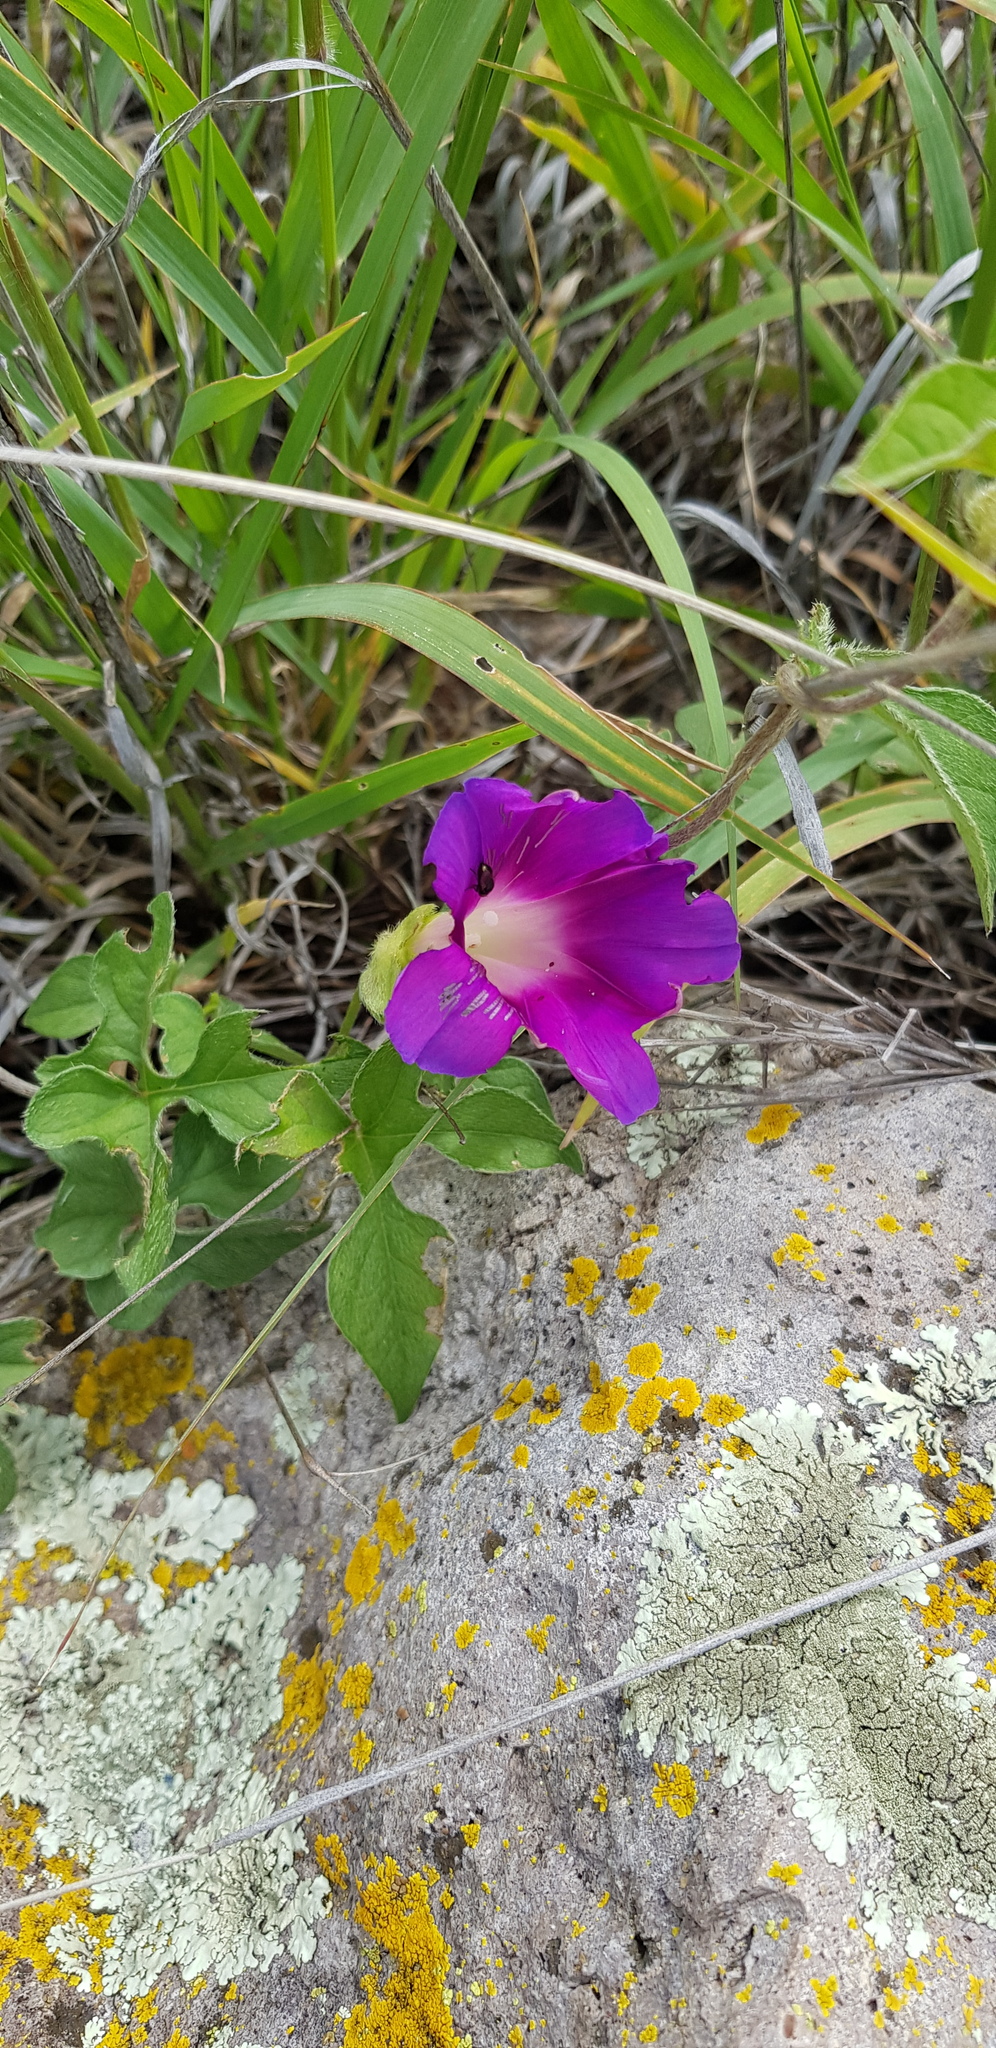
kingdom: Plantae
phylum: Tracheophyta
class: Magnoliopsida
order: Solanales
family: Convolvulaceae
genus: Ipomoea
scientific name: Ipomoea pubescens
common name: Silky morning-glory
